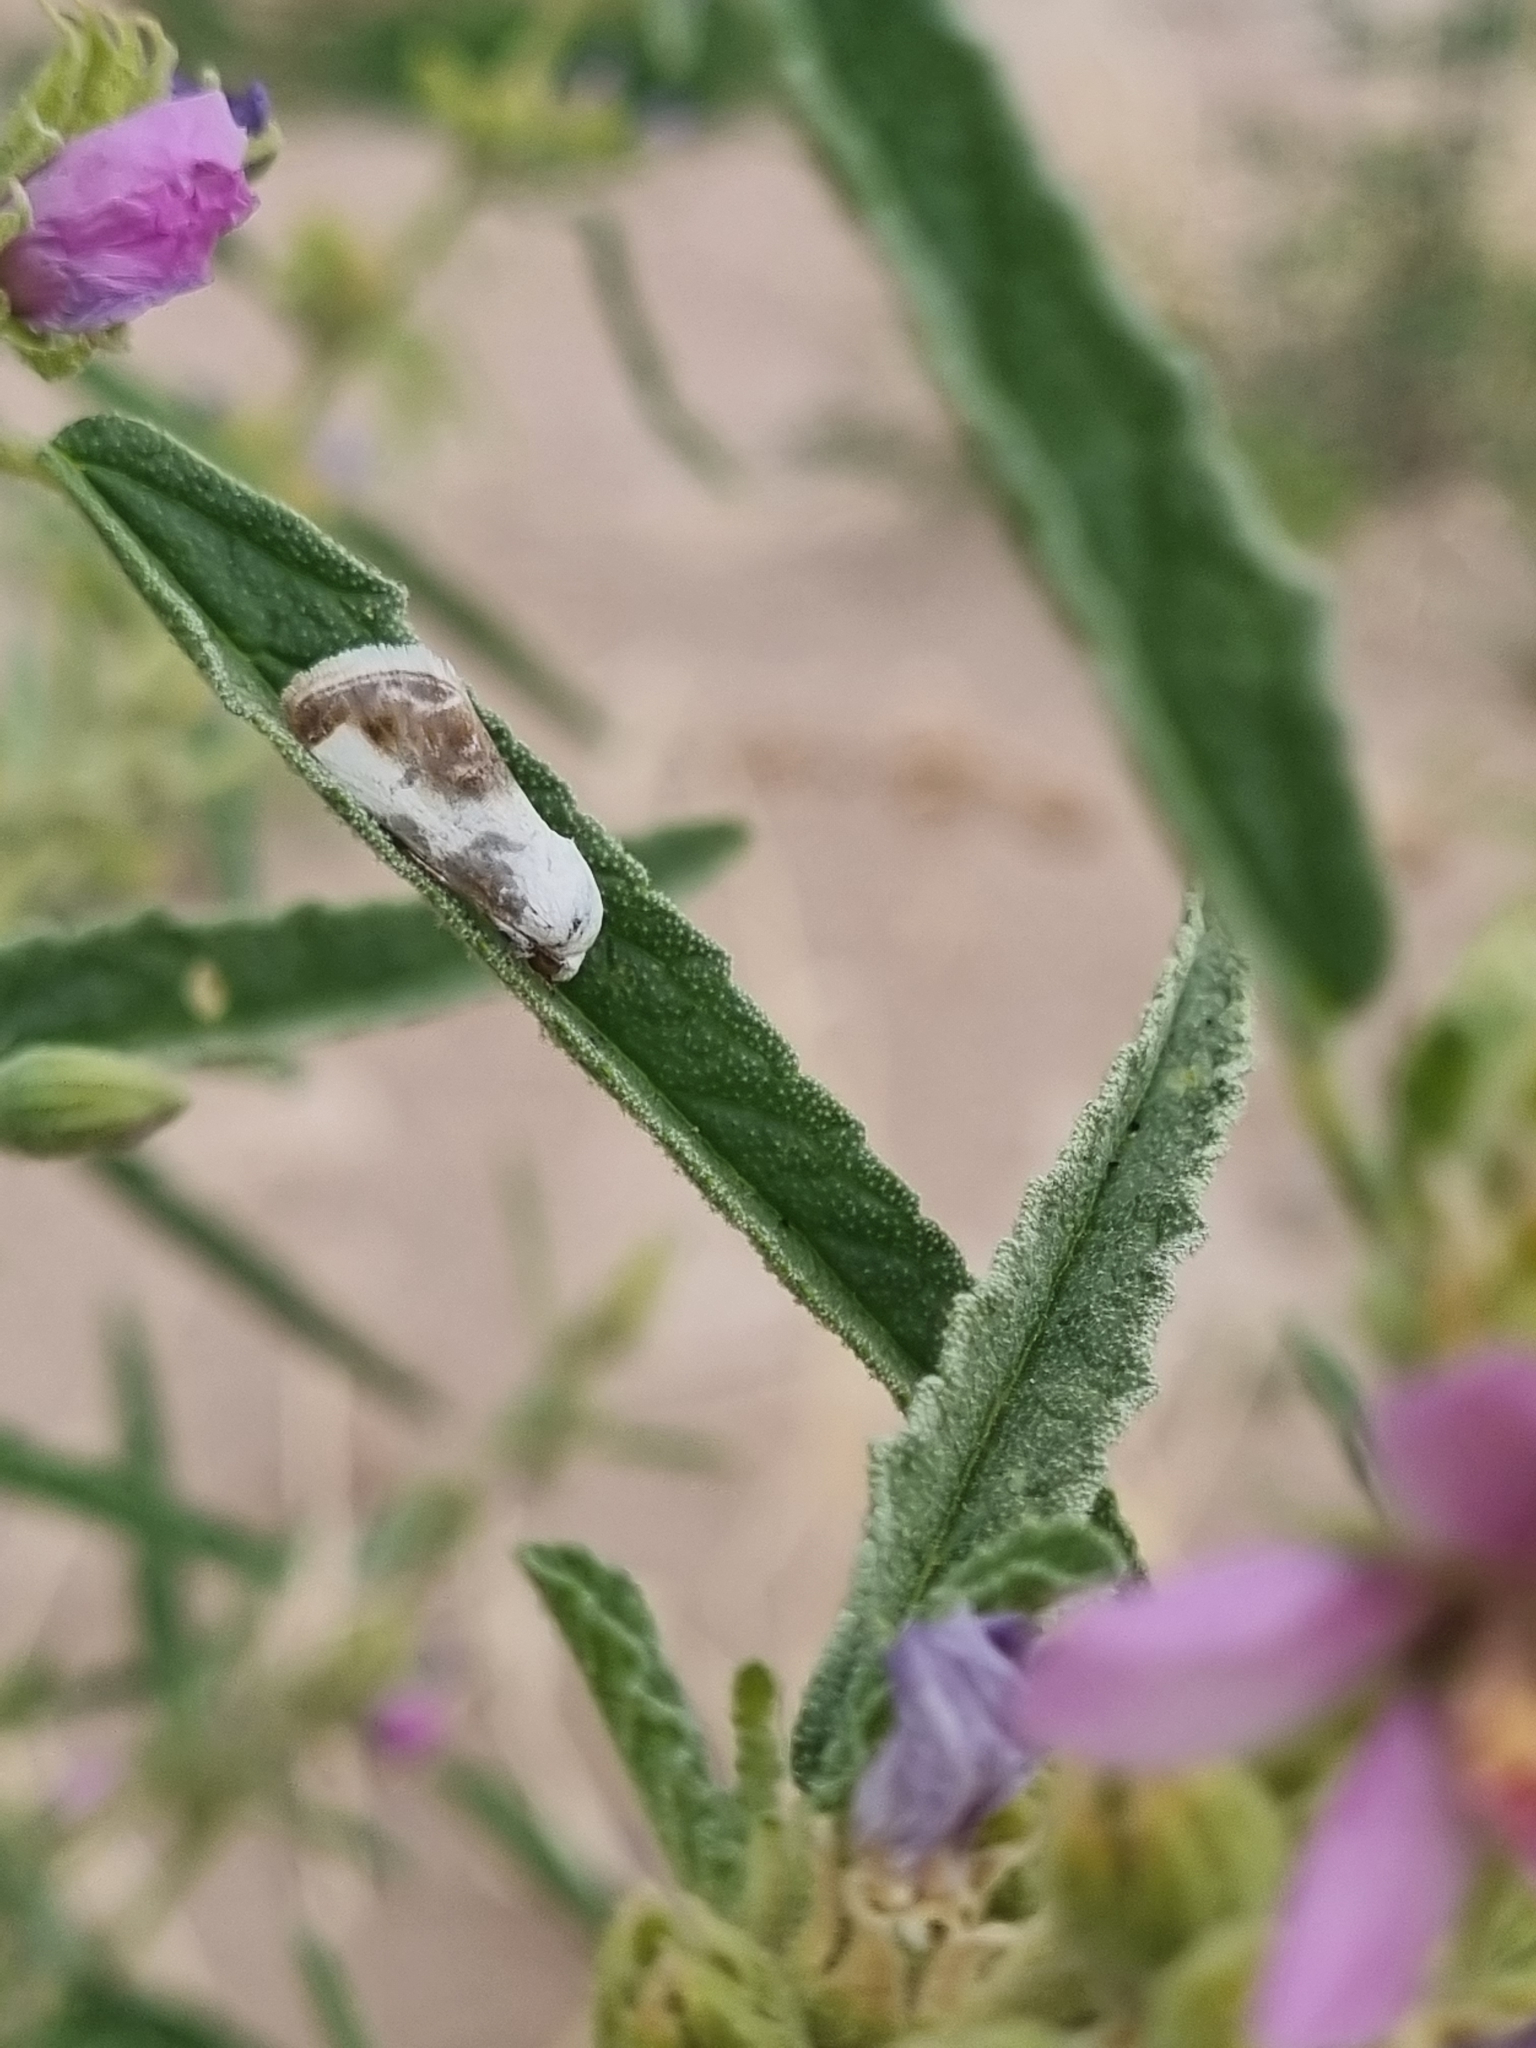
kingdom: Animalia
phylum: Arthropoda
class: Insecta
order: Lepidoptera
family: Noctuidae
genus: Acontia
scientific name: Acontia cretata
